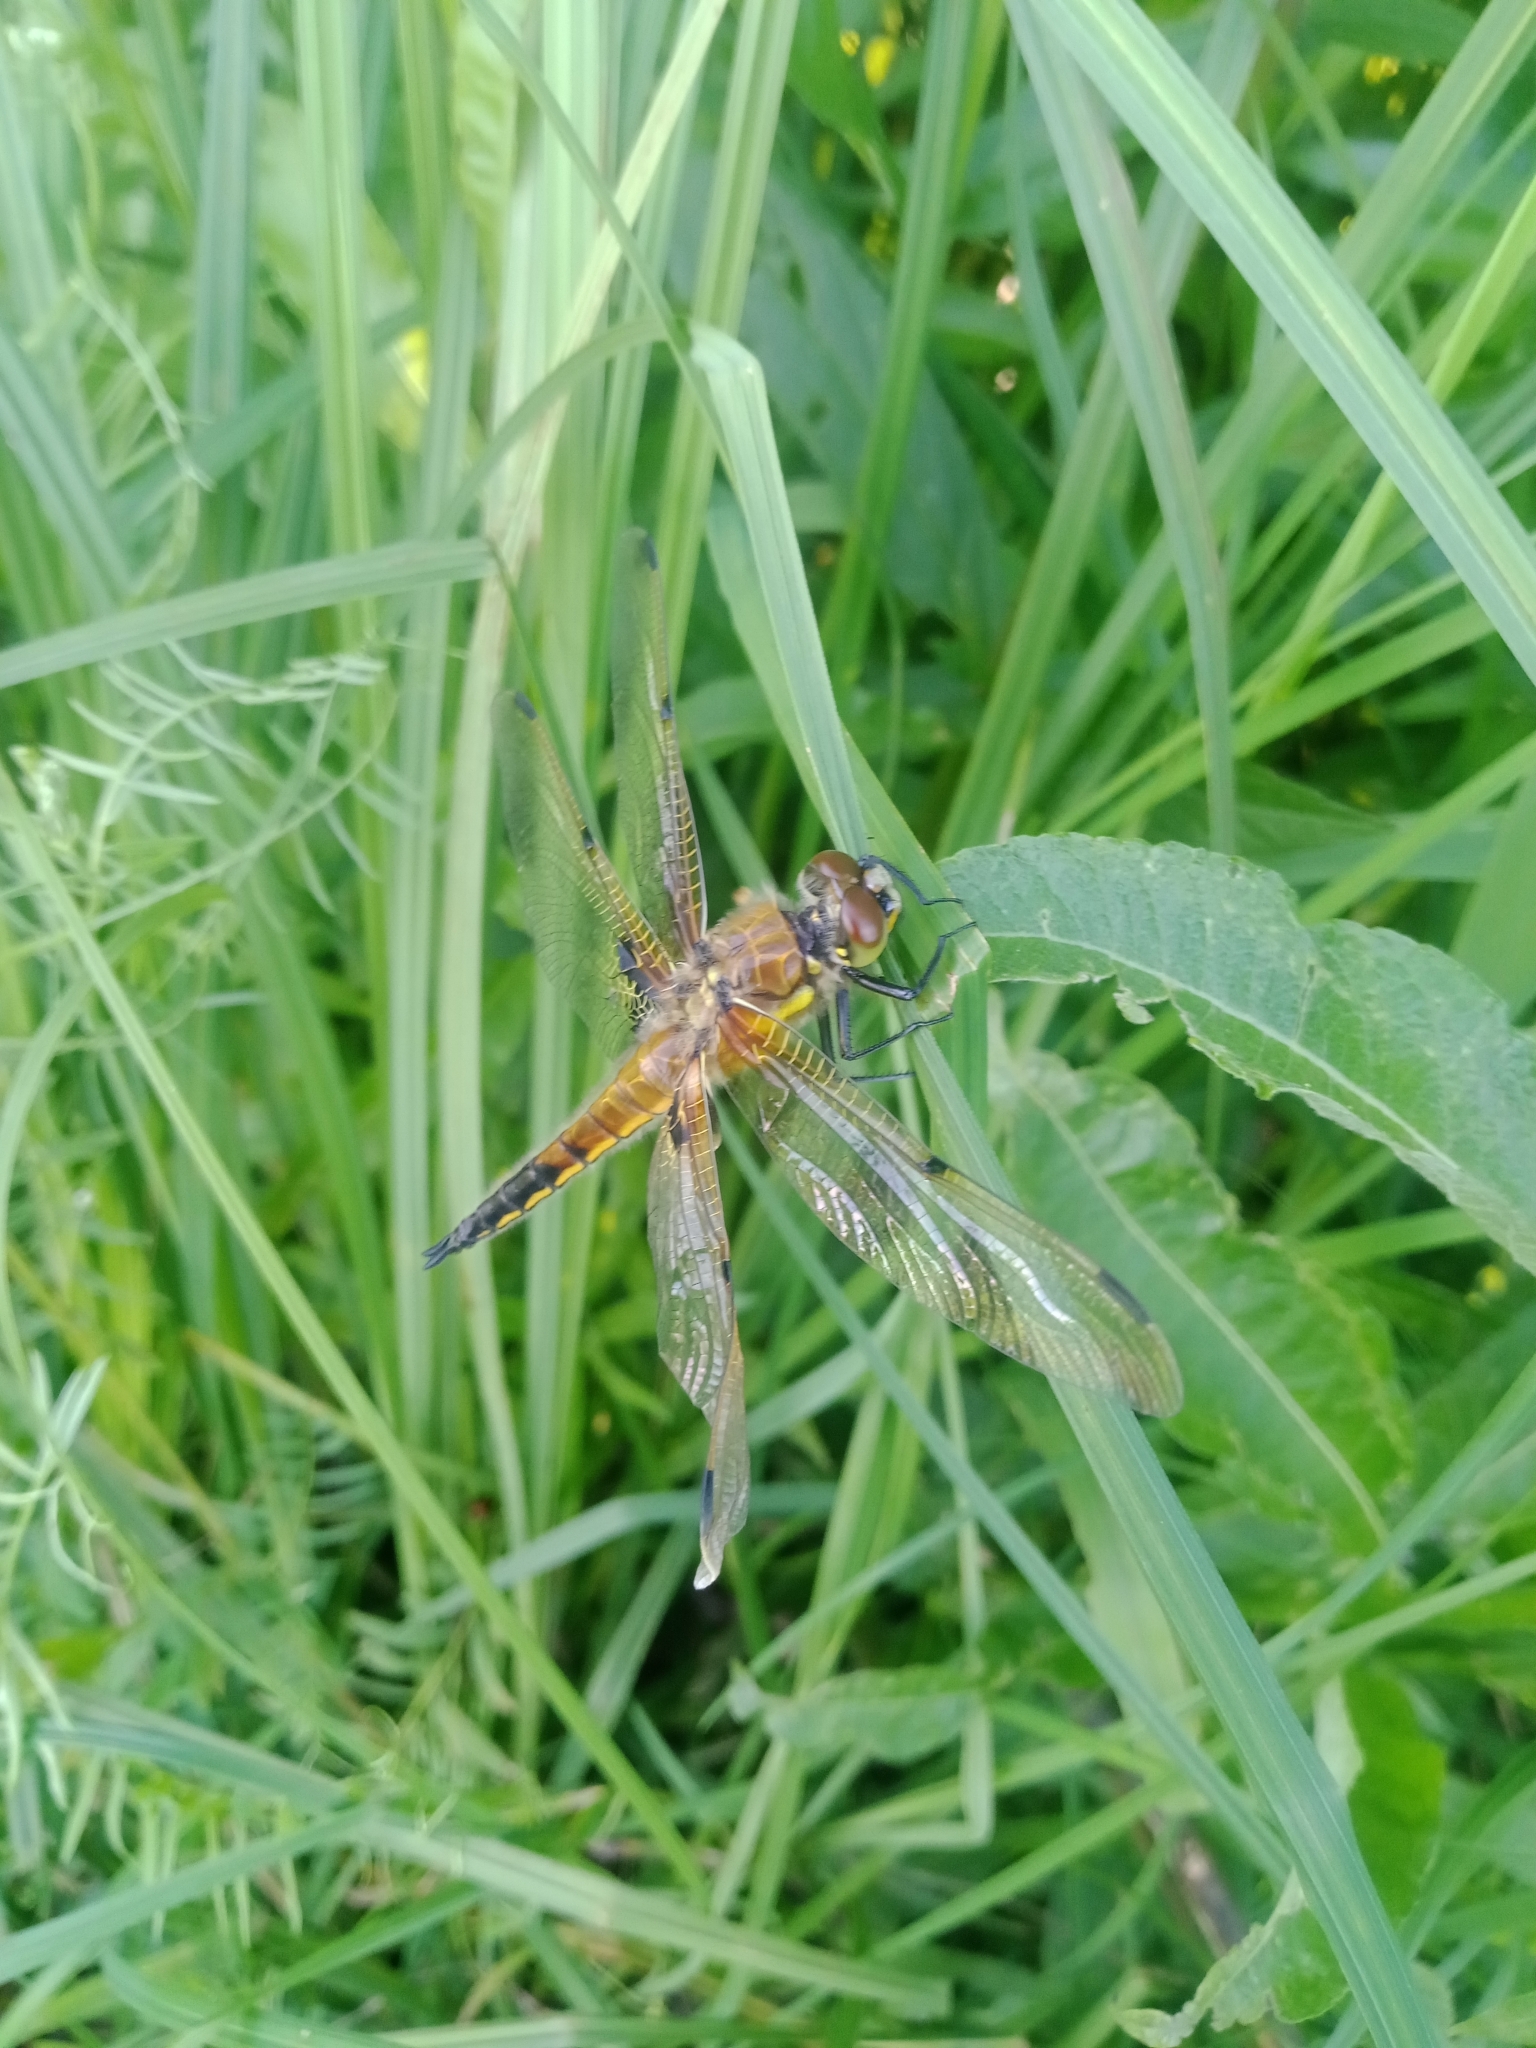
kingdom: Animalia
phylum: Arthropoda
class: Insecta
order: Odonata
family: Libellulidae
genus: Libellula
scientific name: Libellula quadrimaculata
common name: Four-spotted chaser
